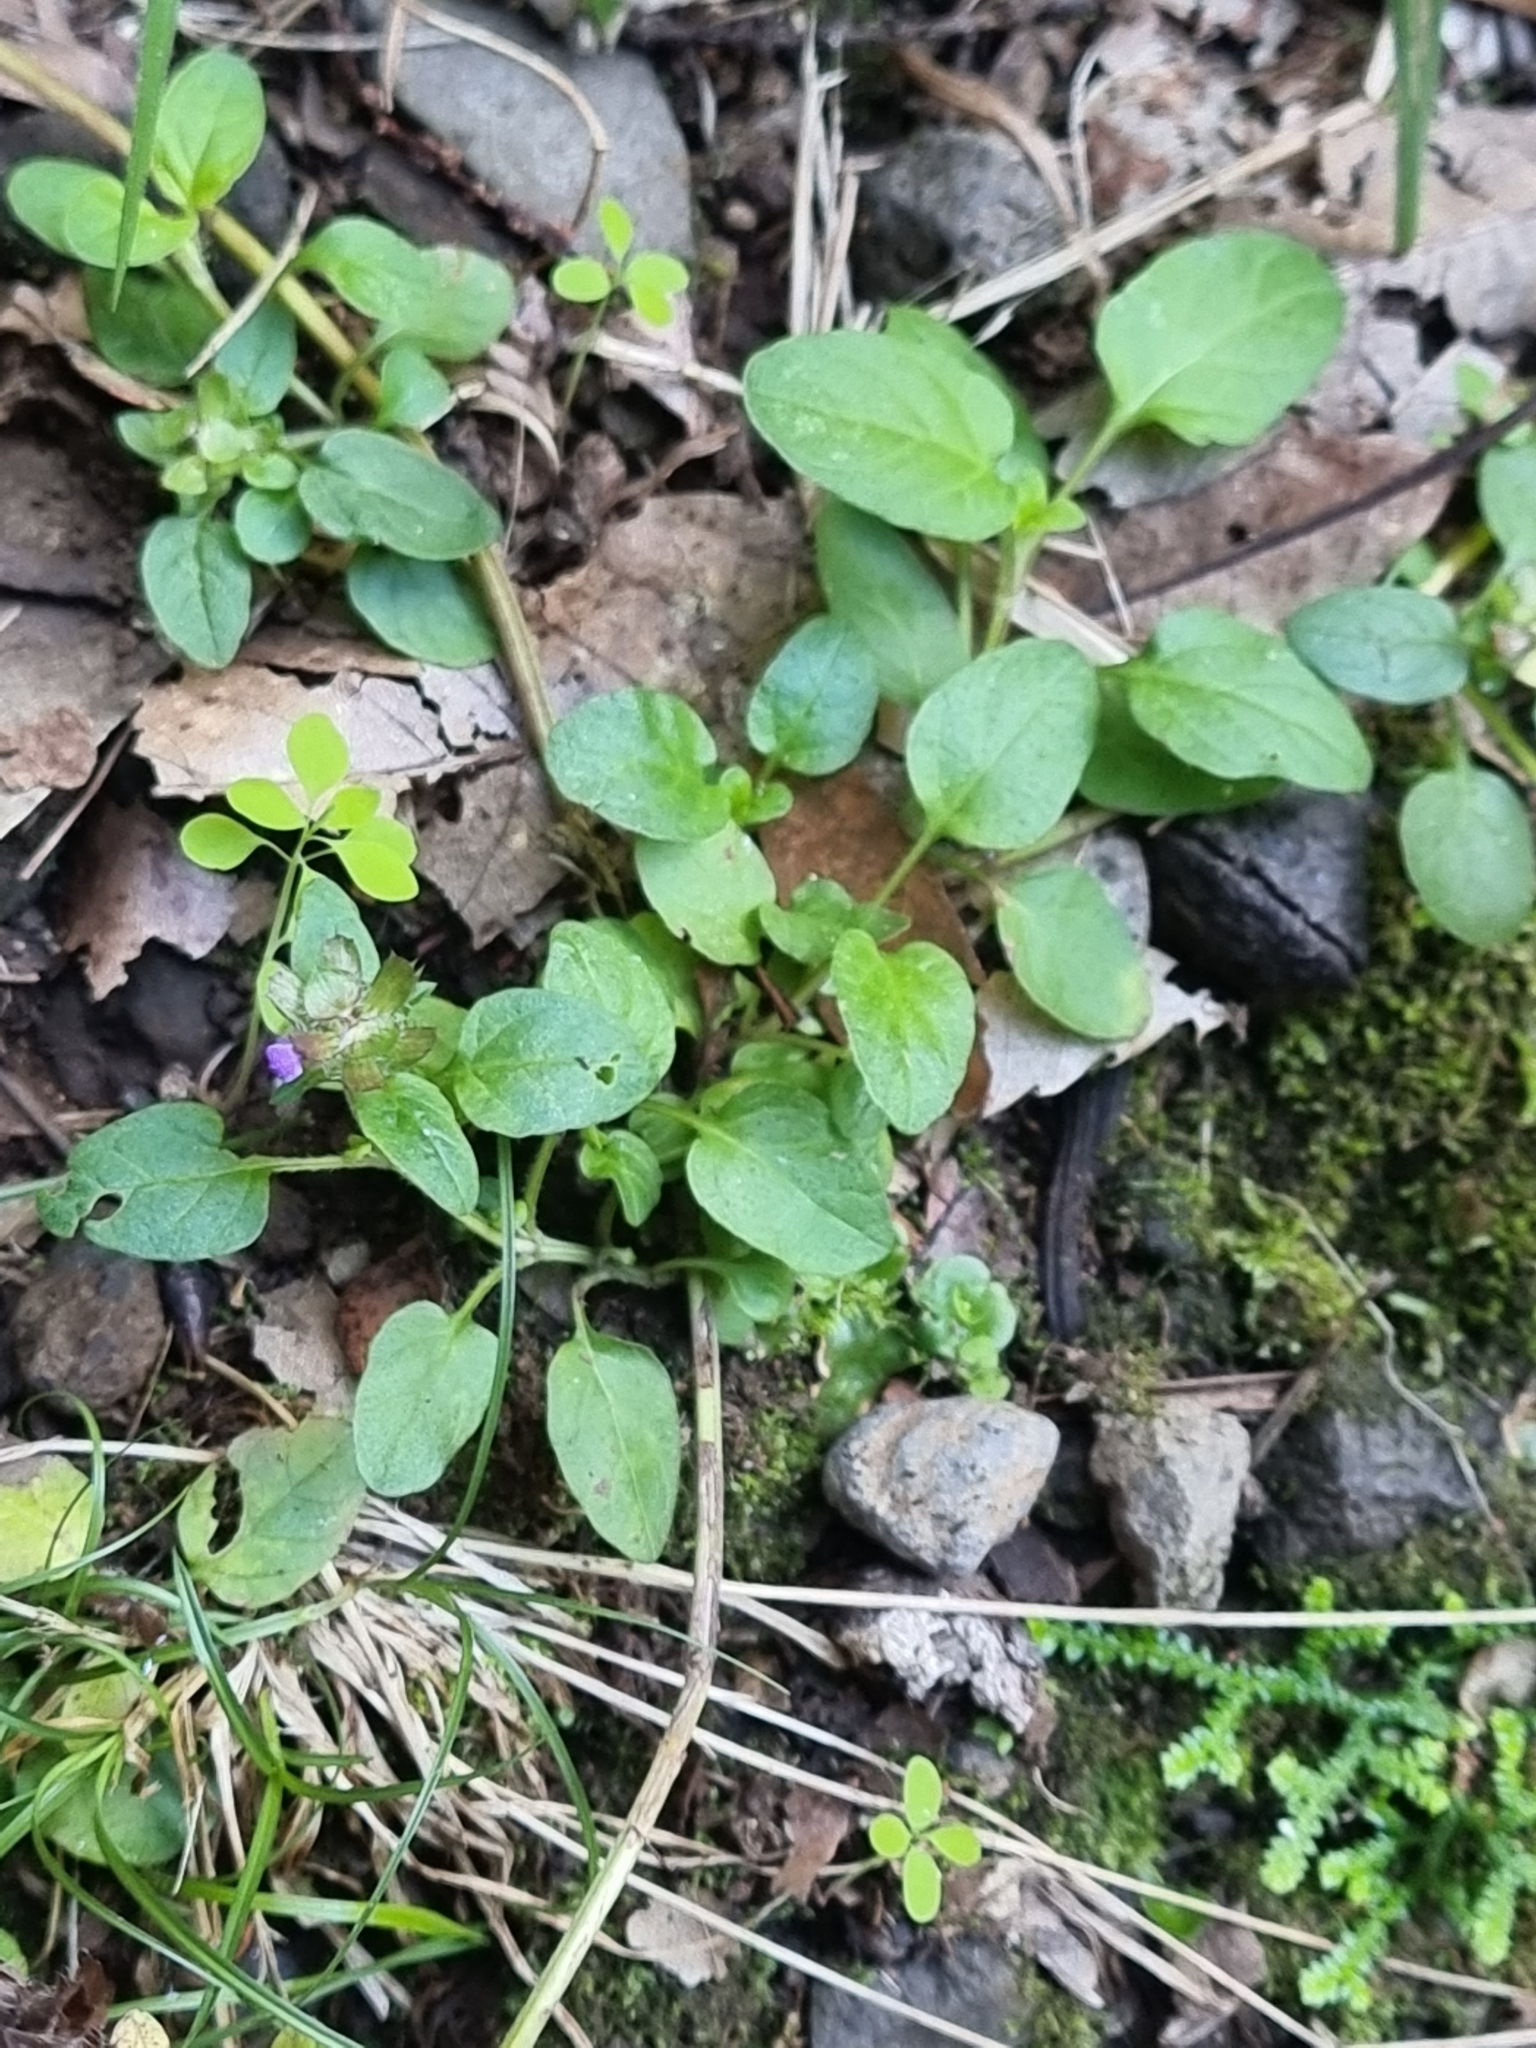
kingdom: Plantae
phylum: Tracheophyta
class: Magnoliopsida
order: Lamiales
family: Lamiaceae
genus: Prunella
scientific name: Prunella vulgaris
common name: Heal-all
